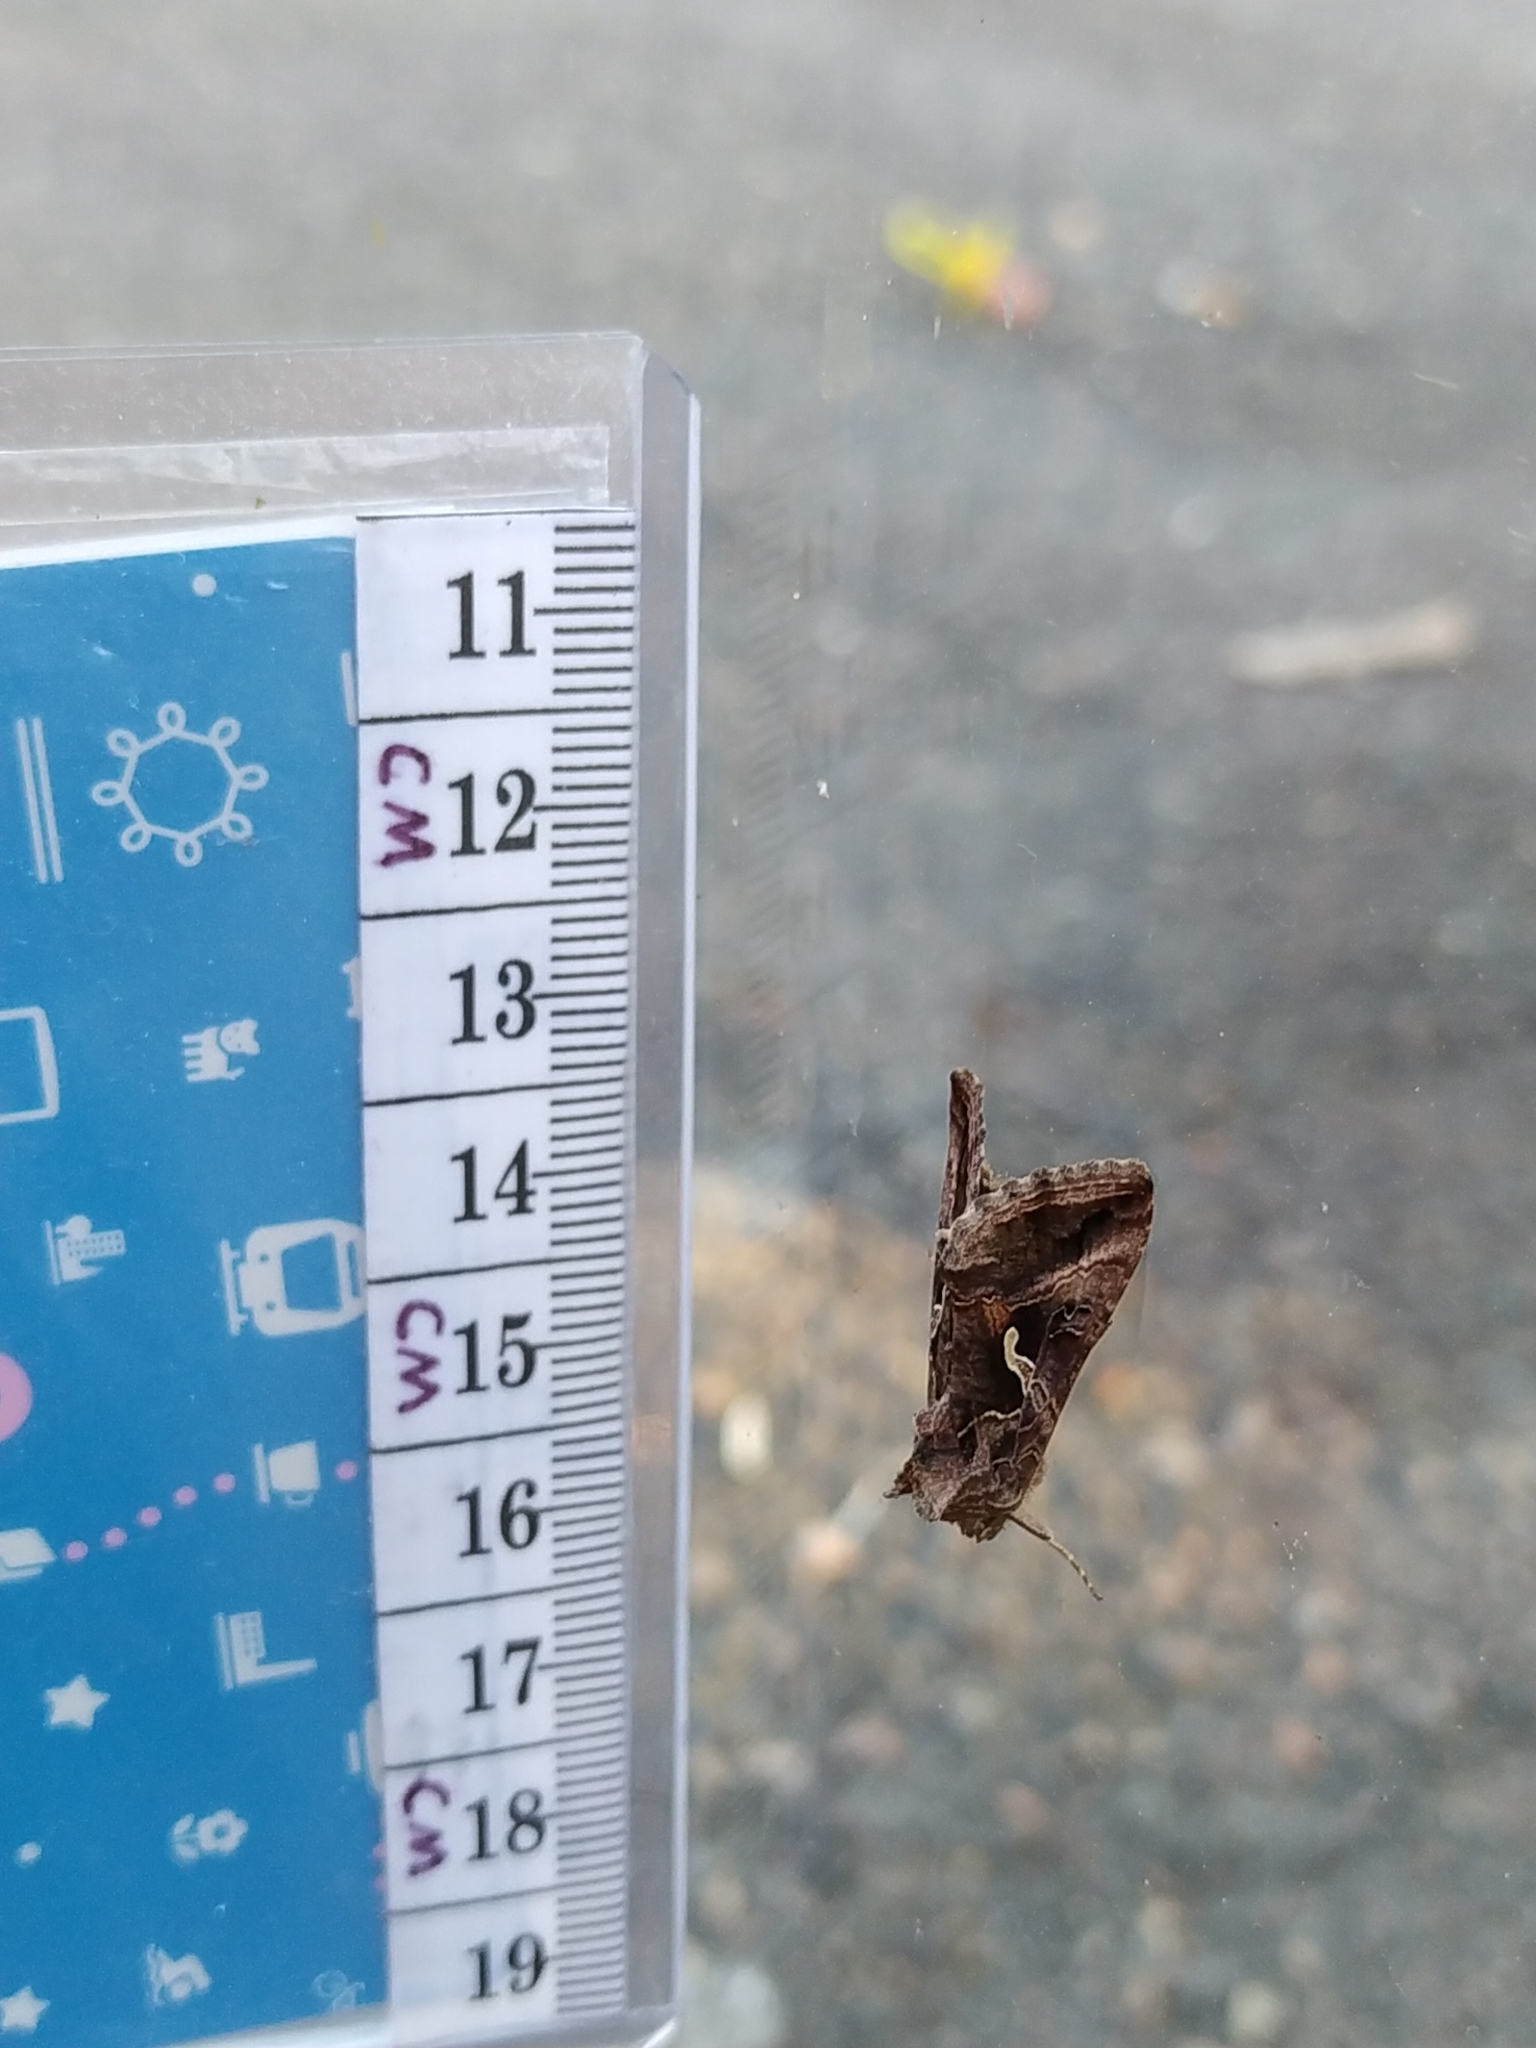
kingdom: Animalia
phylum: Arthropoda
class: Insecta
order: Lepidoptera
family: Noctuidae
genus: Autographa
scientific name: Autographa gamma
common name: Silver y
